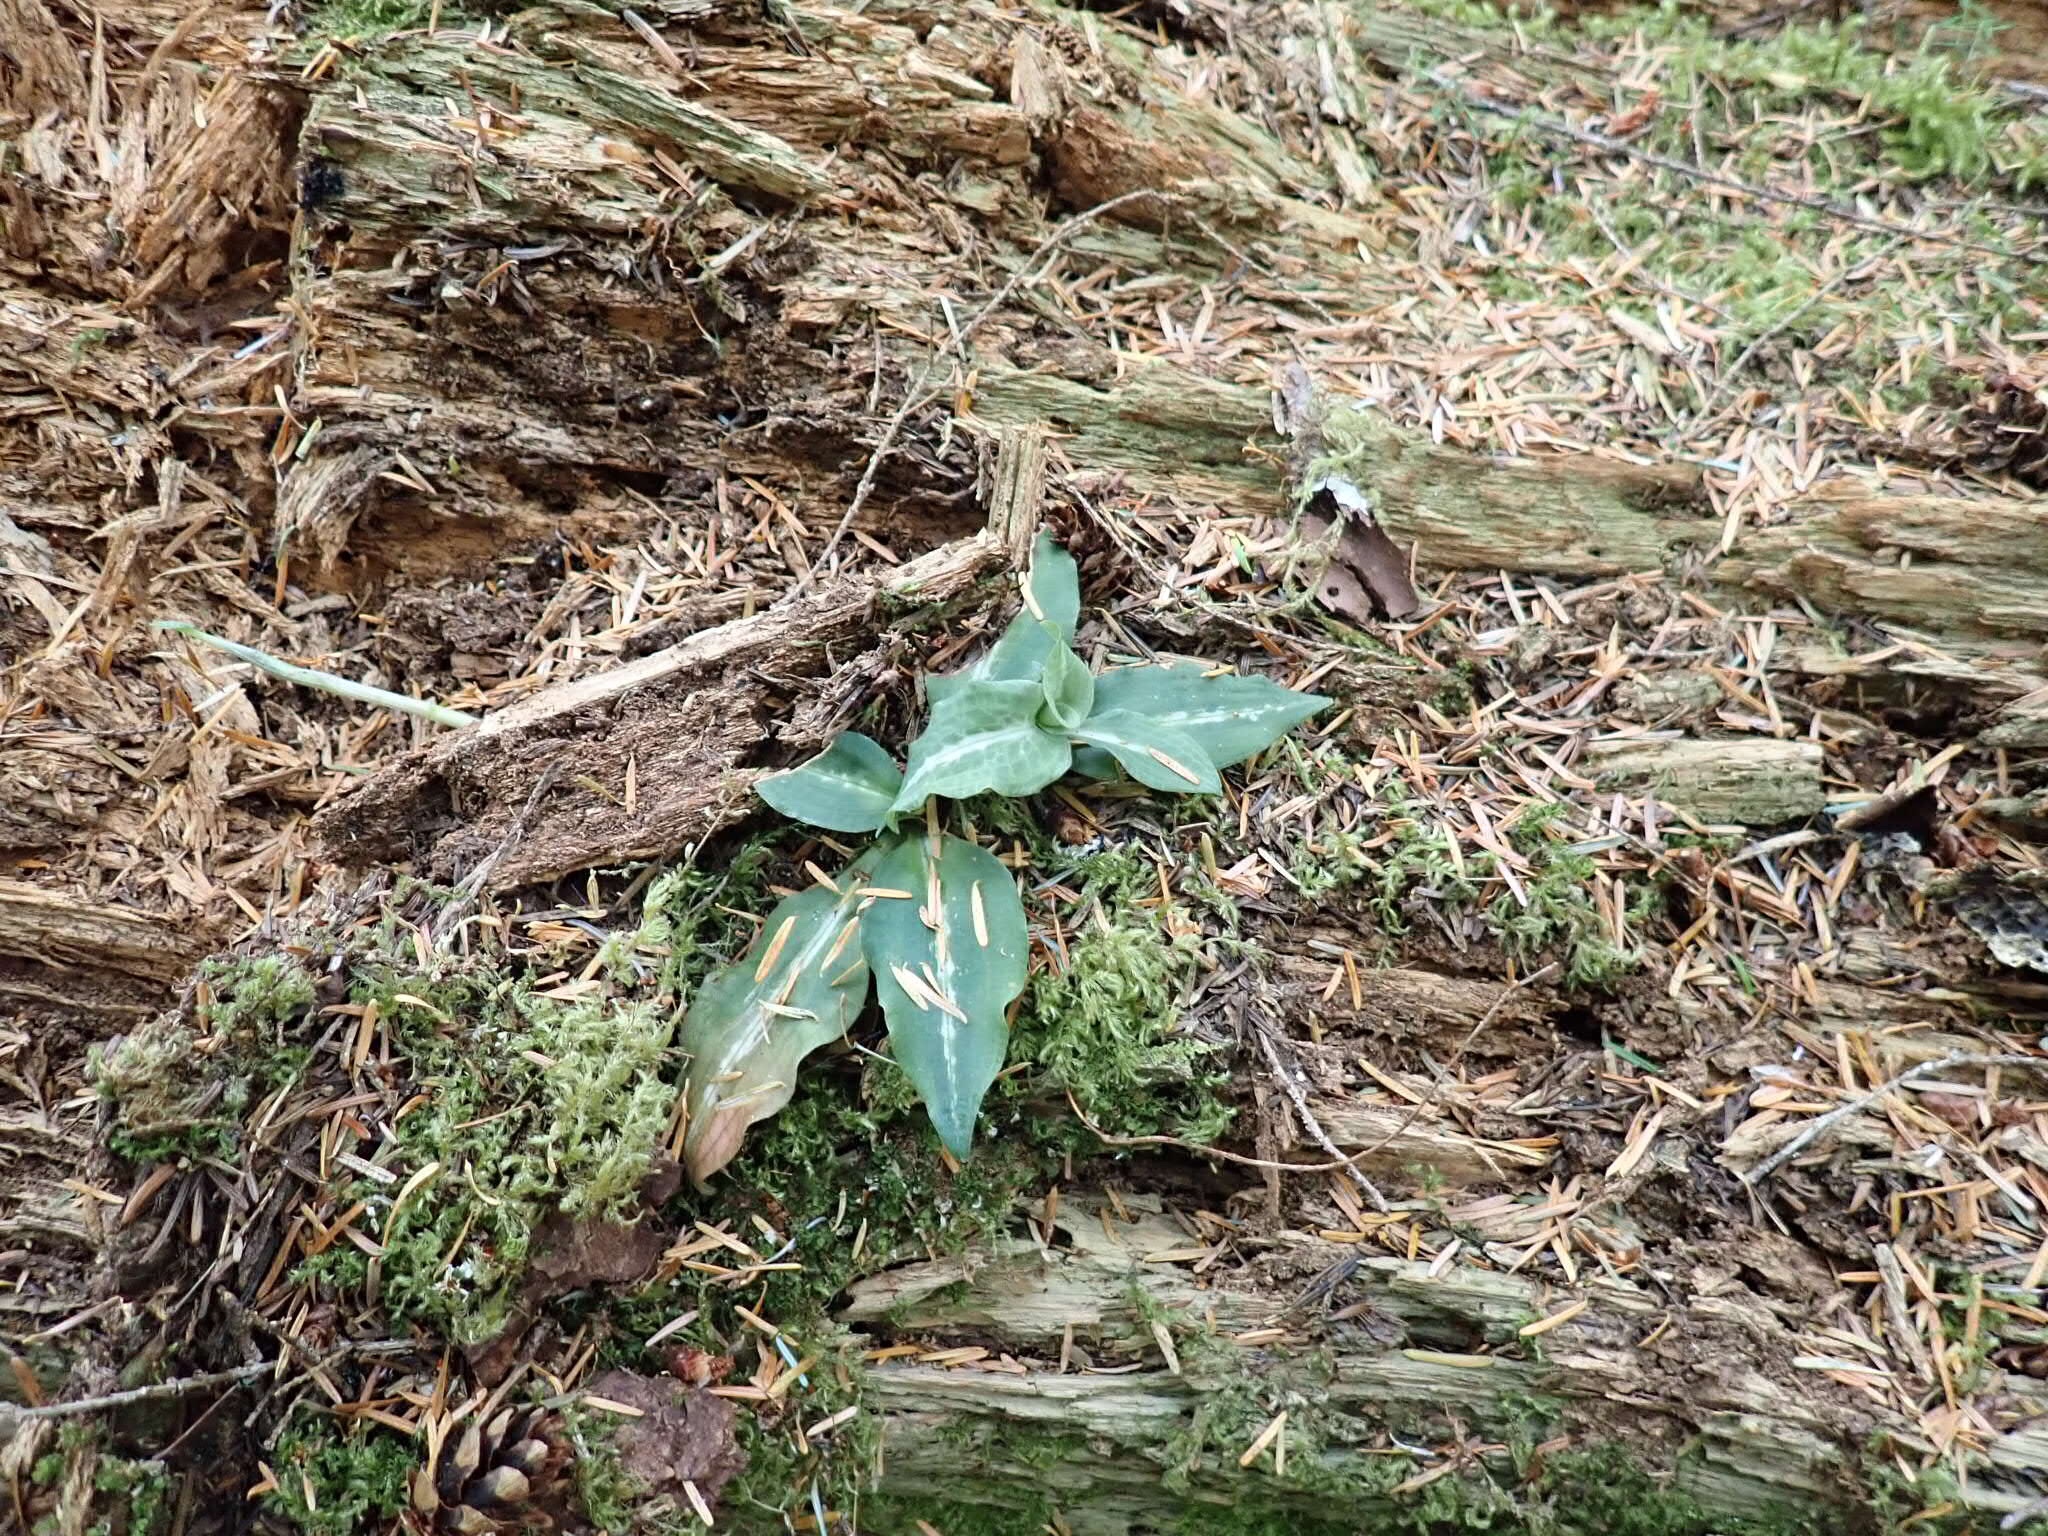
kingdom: Plantae
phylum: Tracheophyta
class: Liliopsida
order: Asparagales
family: Orchidaceae
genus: Goodyera
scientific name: Goodyera oblongifolia
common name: Giant rattlesnake-plantain
